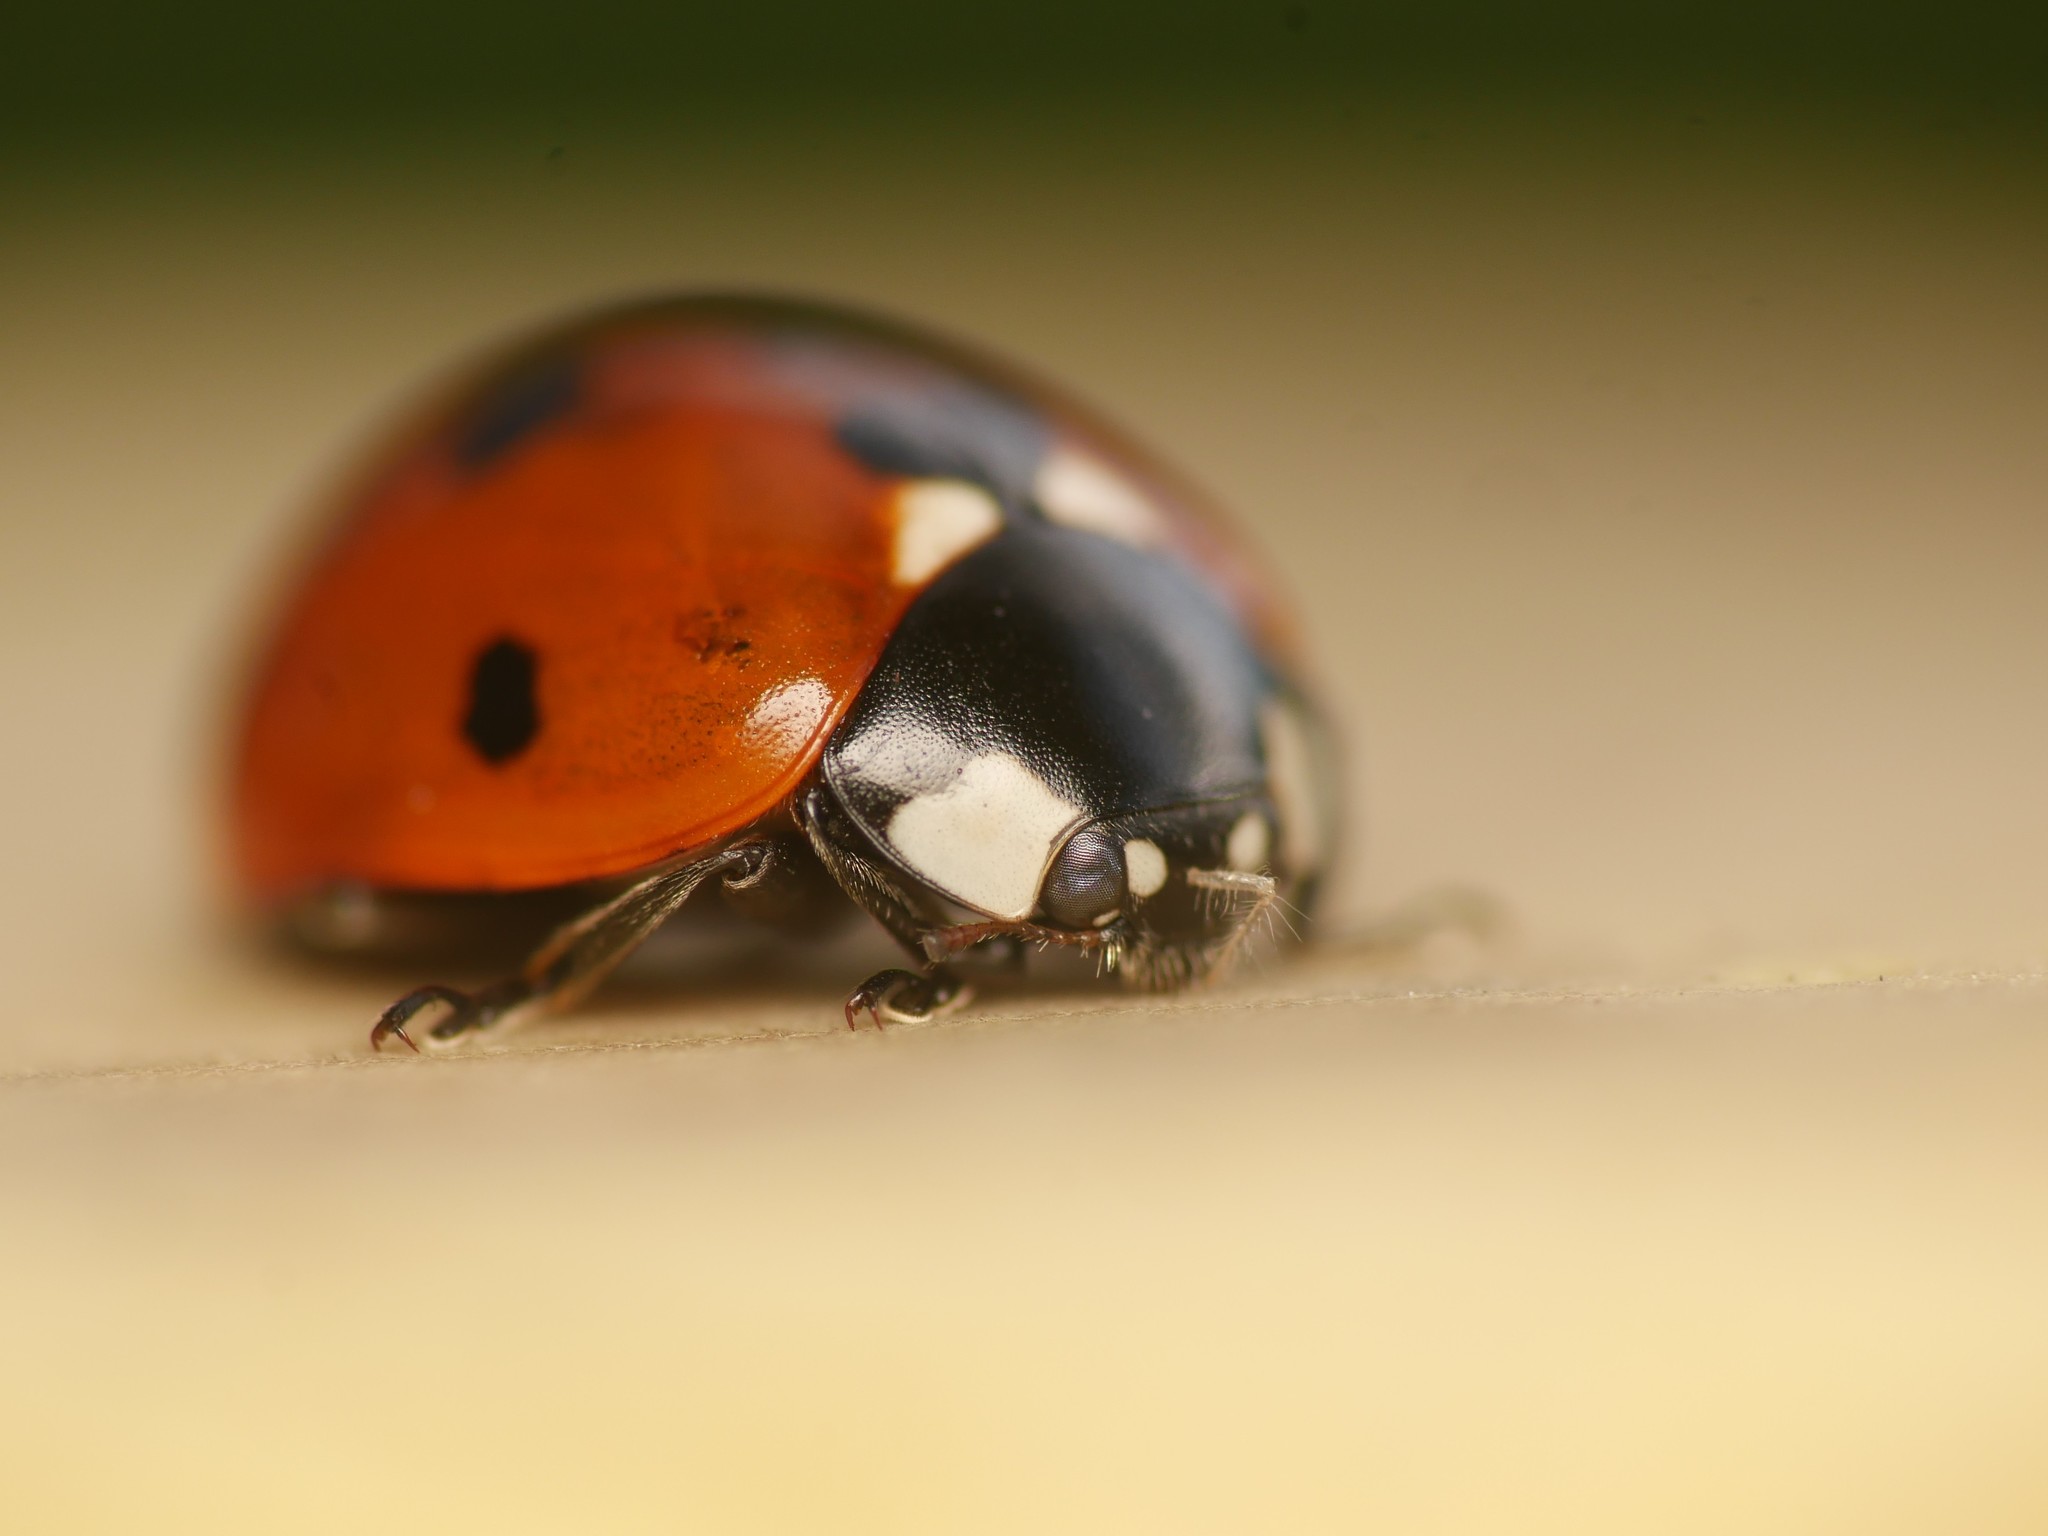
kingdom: Animalia
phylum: Arthropoda
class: Insecta
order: Coleoptera
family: Coccinellidae
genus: Coccinella
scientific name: Coccinella septempunctata
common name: Sevenspotted lady beetle
